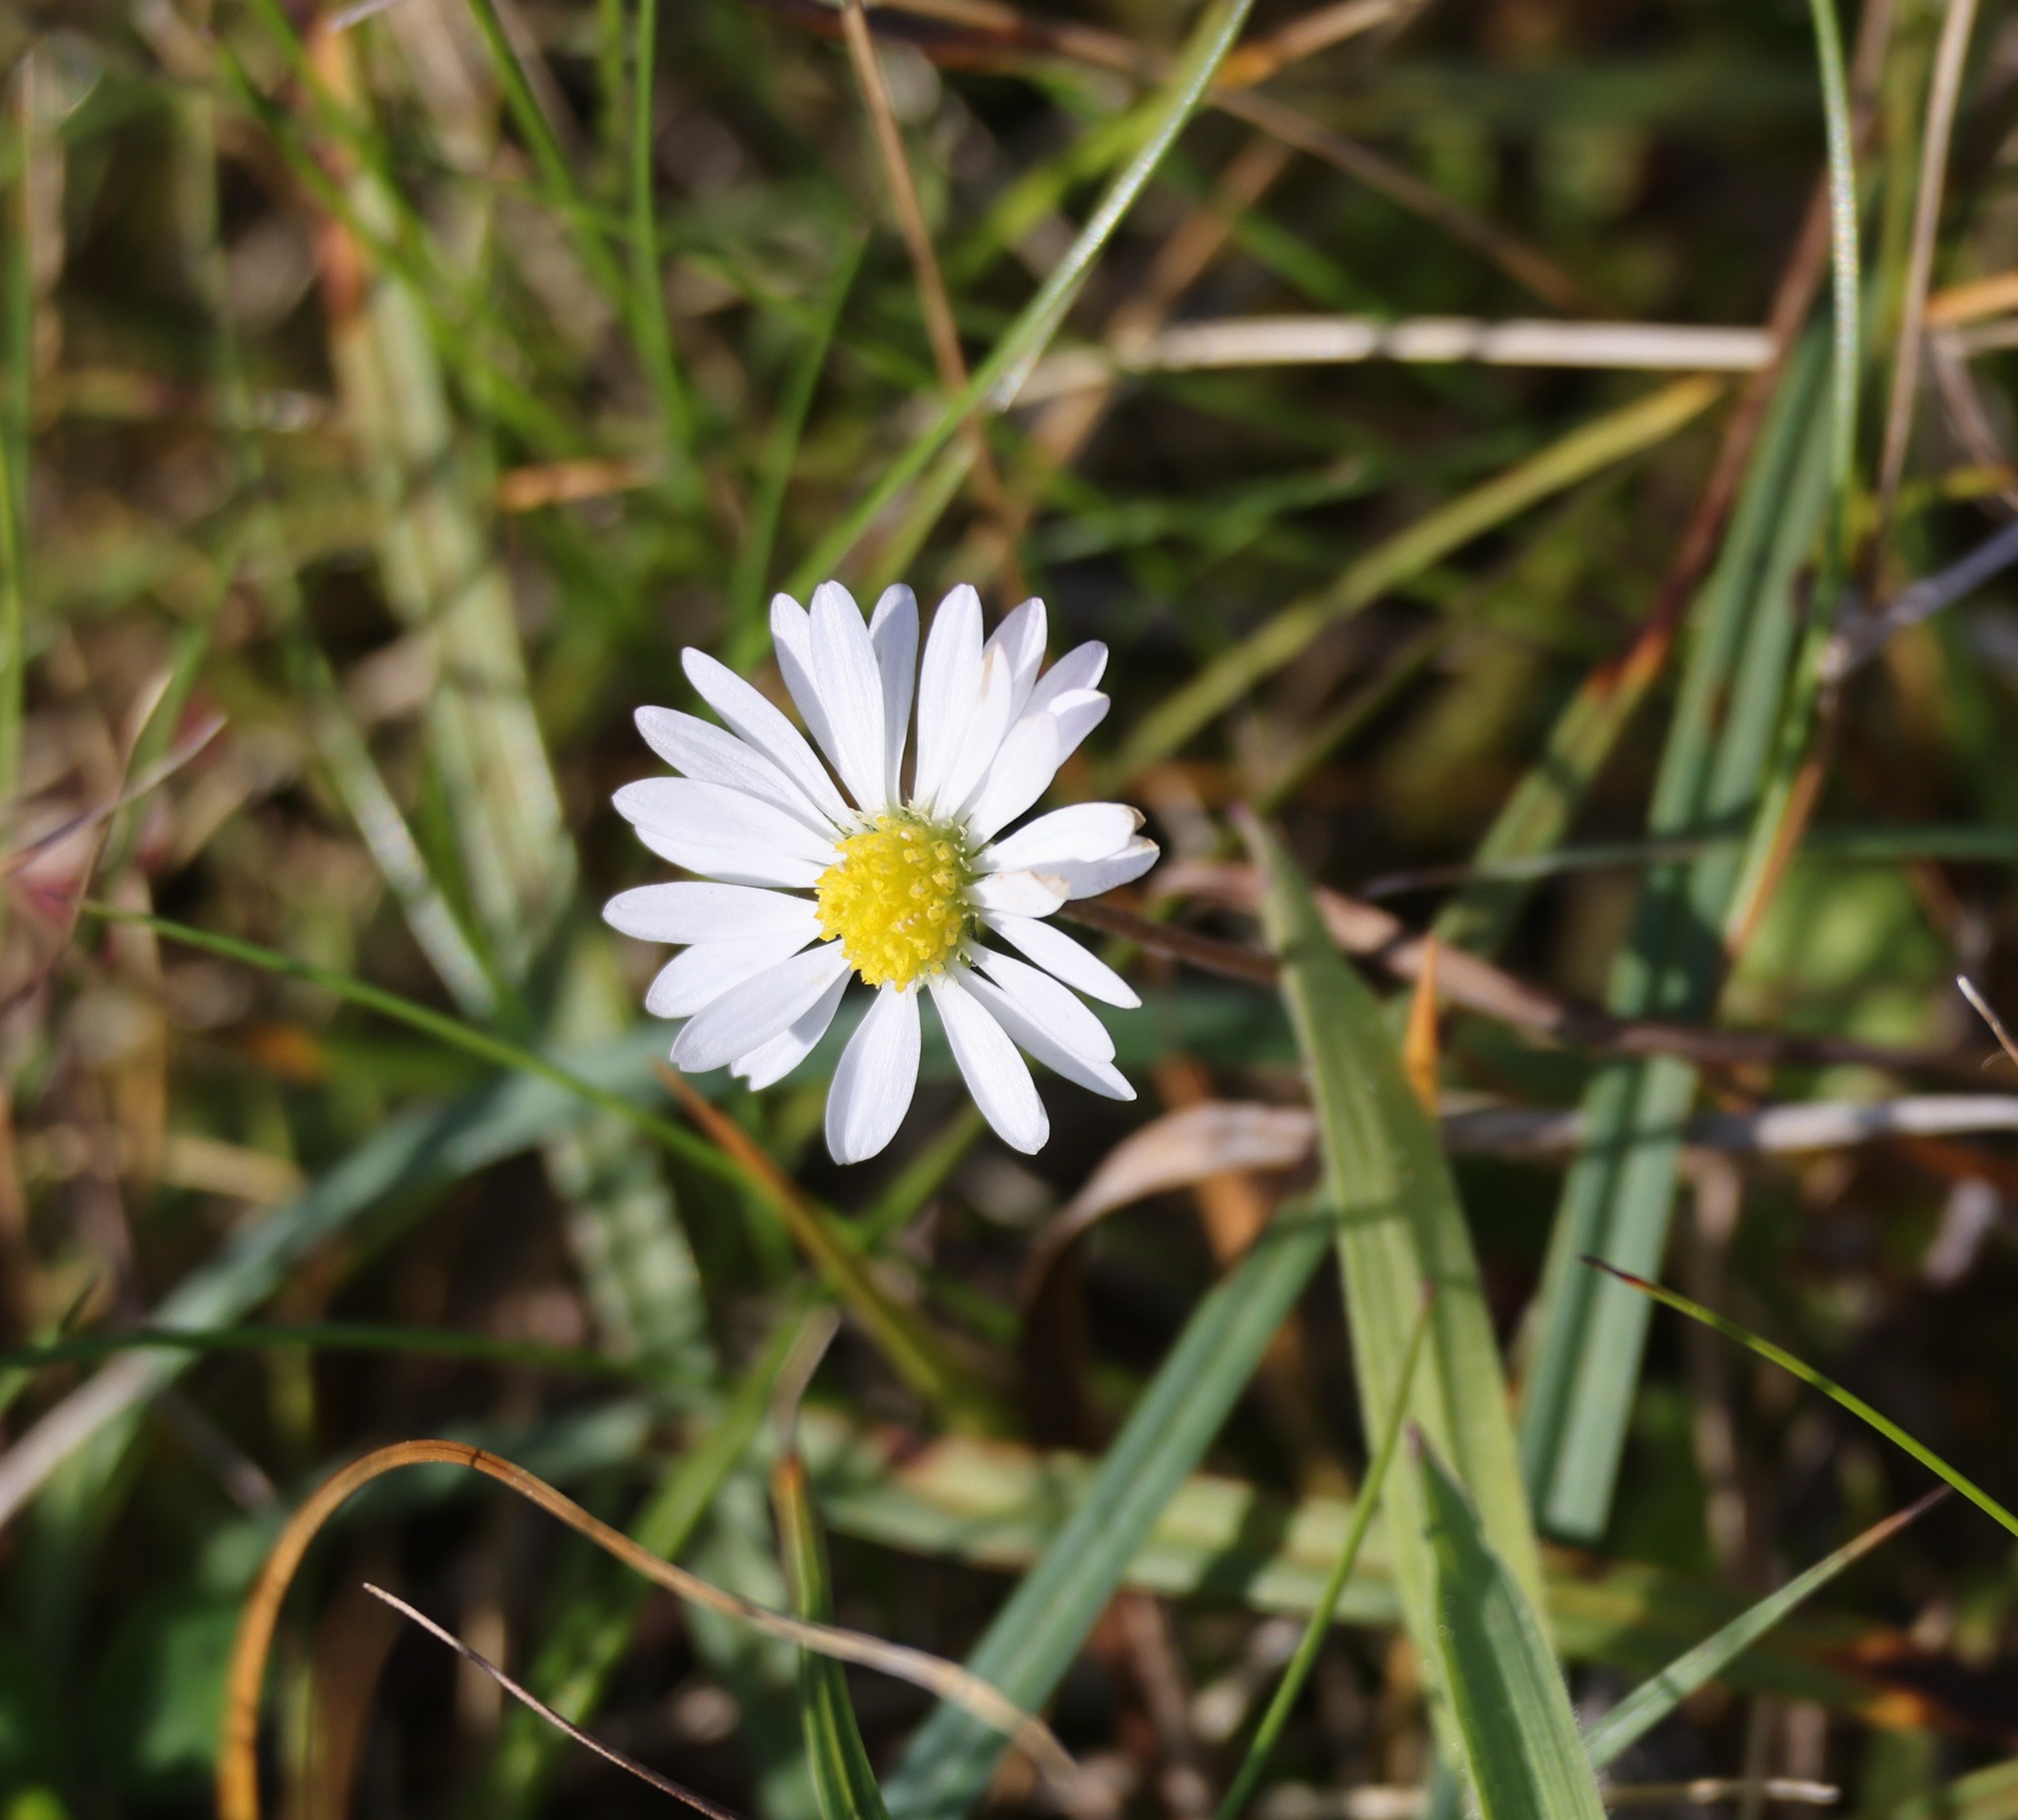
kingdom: Plantae
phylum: Tracheophyta
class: Magnoliopsida
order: Asterales
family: Asteraceae
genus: Bellis
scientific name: Bellis perennis
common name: Lawndaisy
